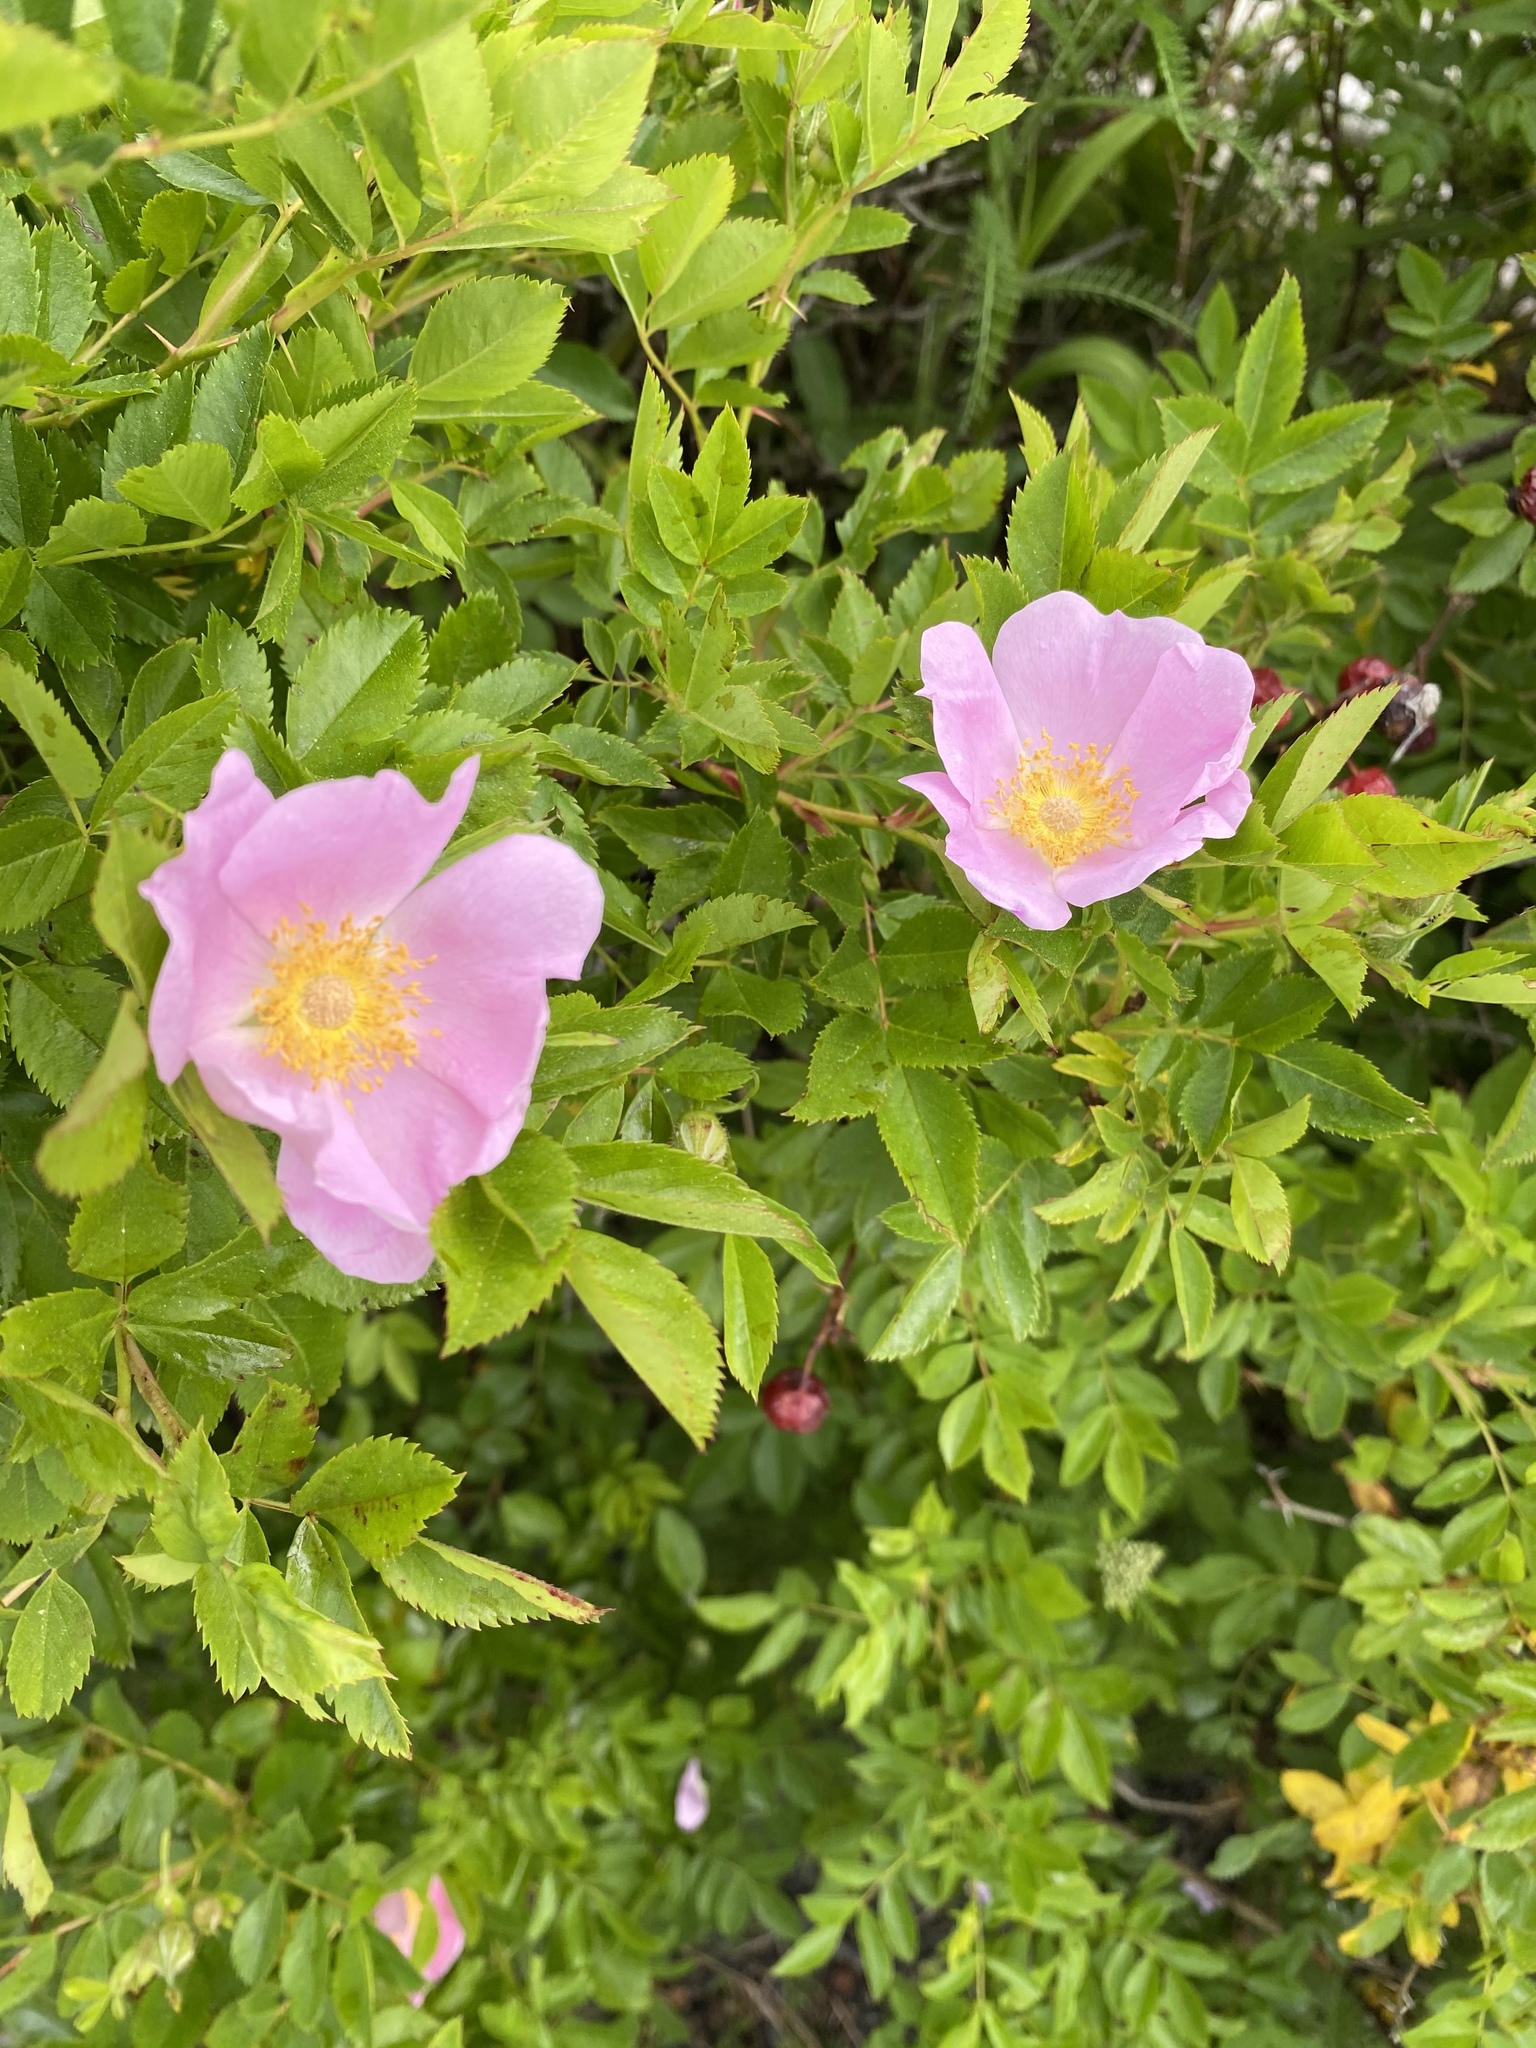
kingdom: Plantae
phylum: Tracheophyta
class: Magnoliopsida
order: Rosales
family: Rosaceae
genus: Rosa
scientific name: Rosa carolina
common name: Pasture rose
